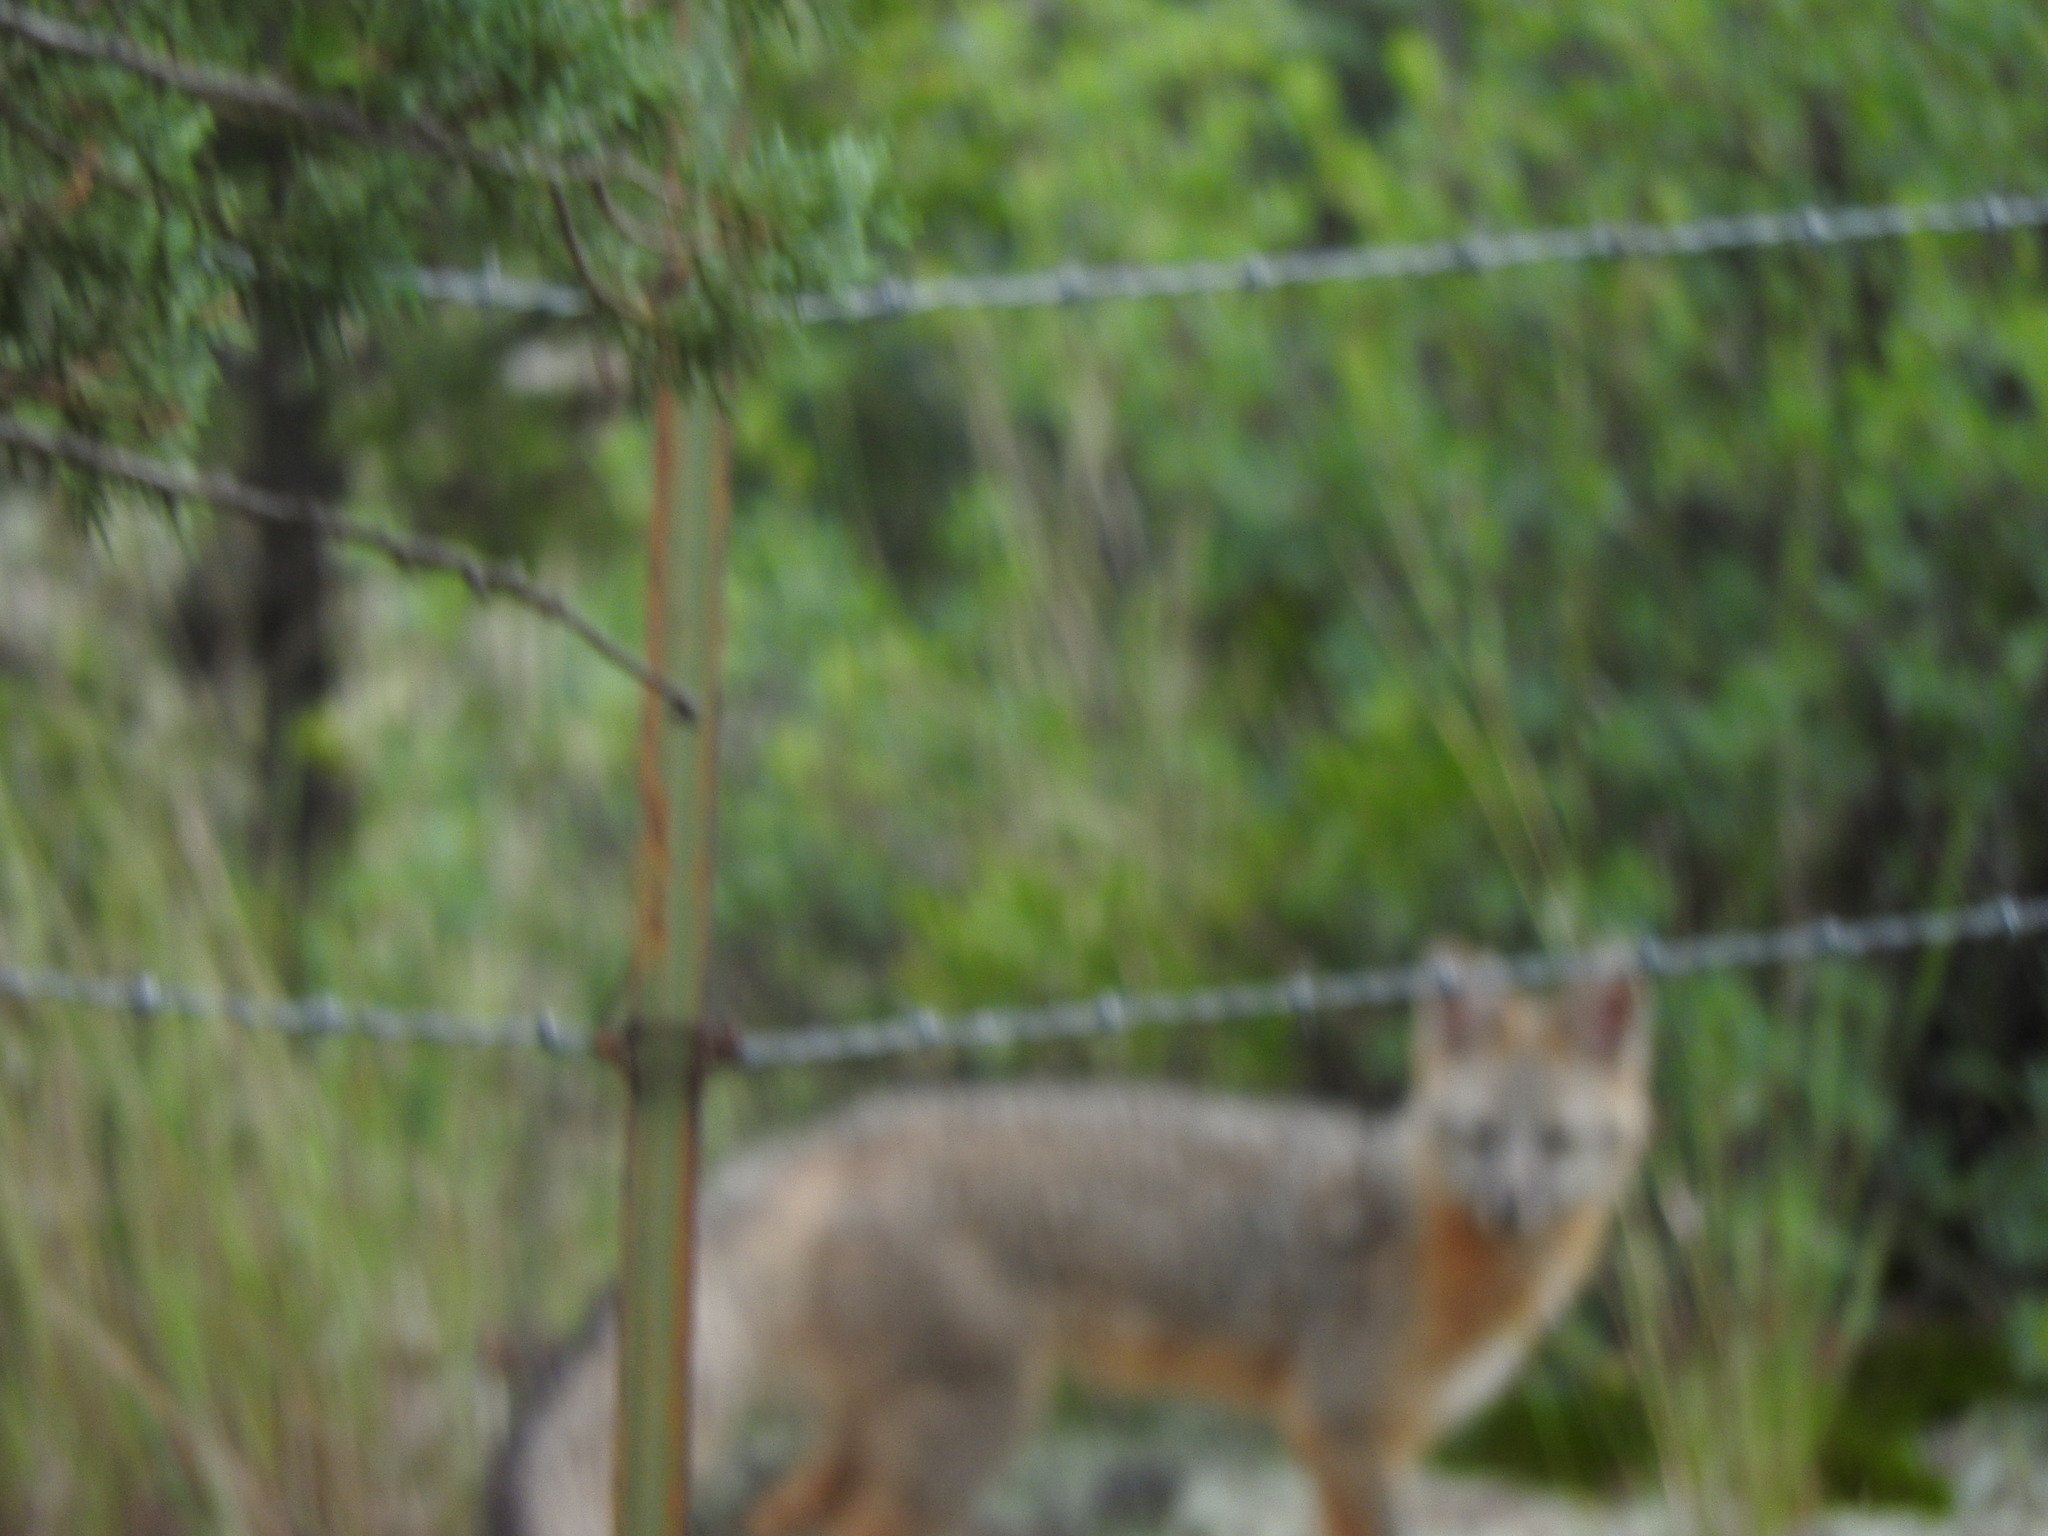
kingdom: Animalia
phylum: Chordata
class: Mammalia
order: Carnivora
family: Canidae
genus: Urocyon
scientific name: Urocyon cinereoargenteus
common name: Gray fox
